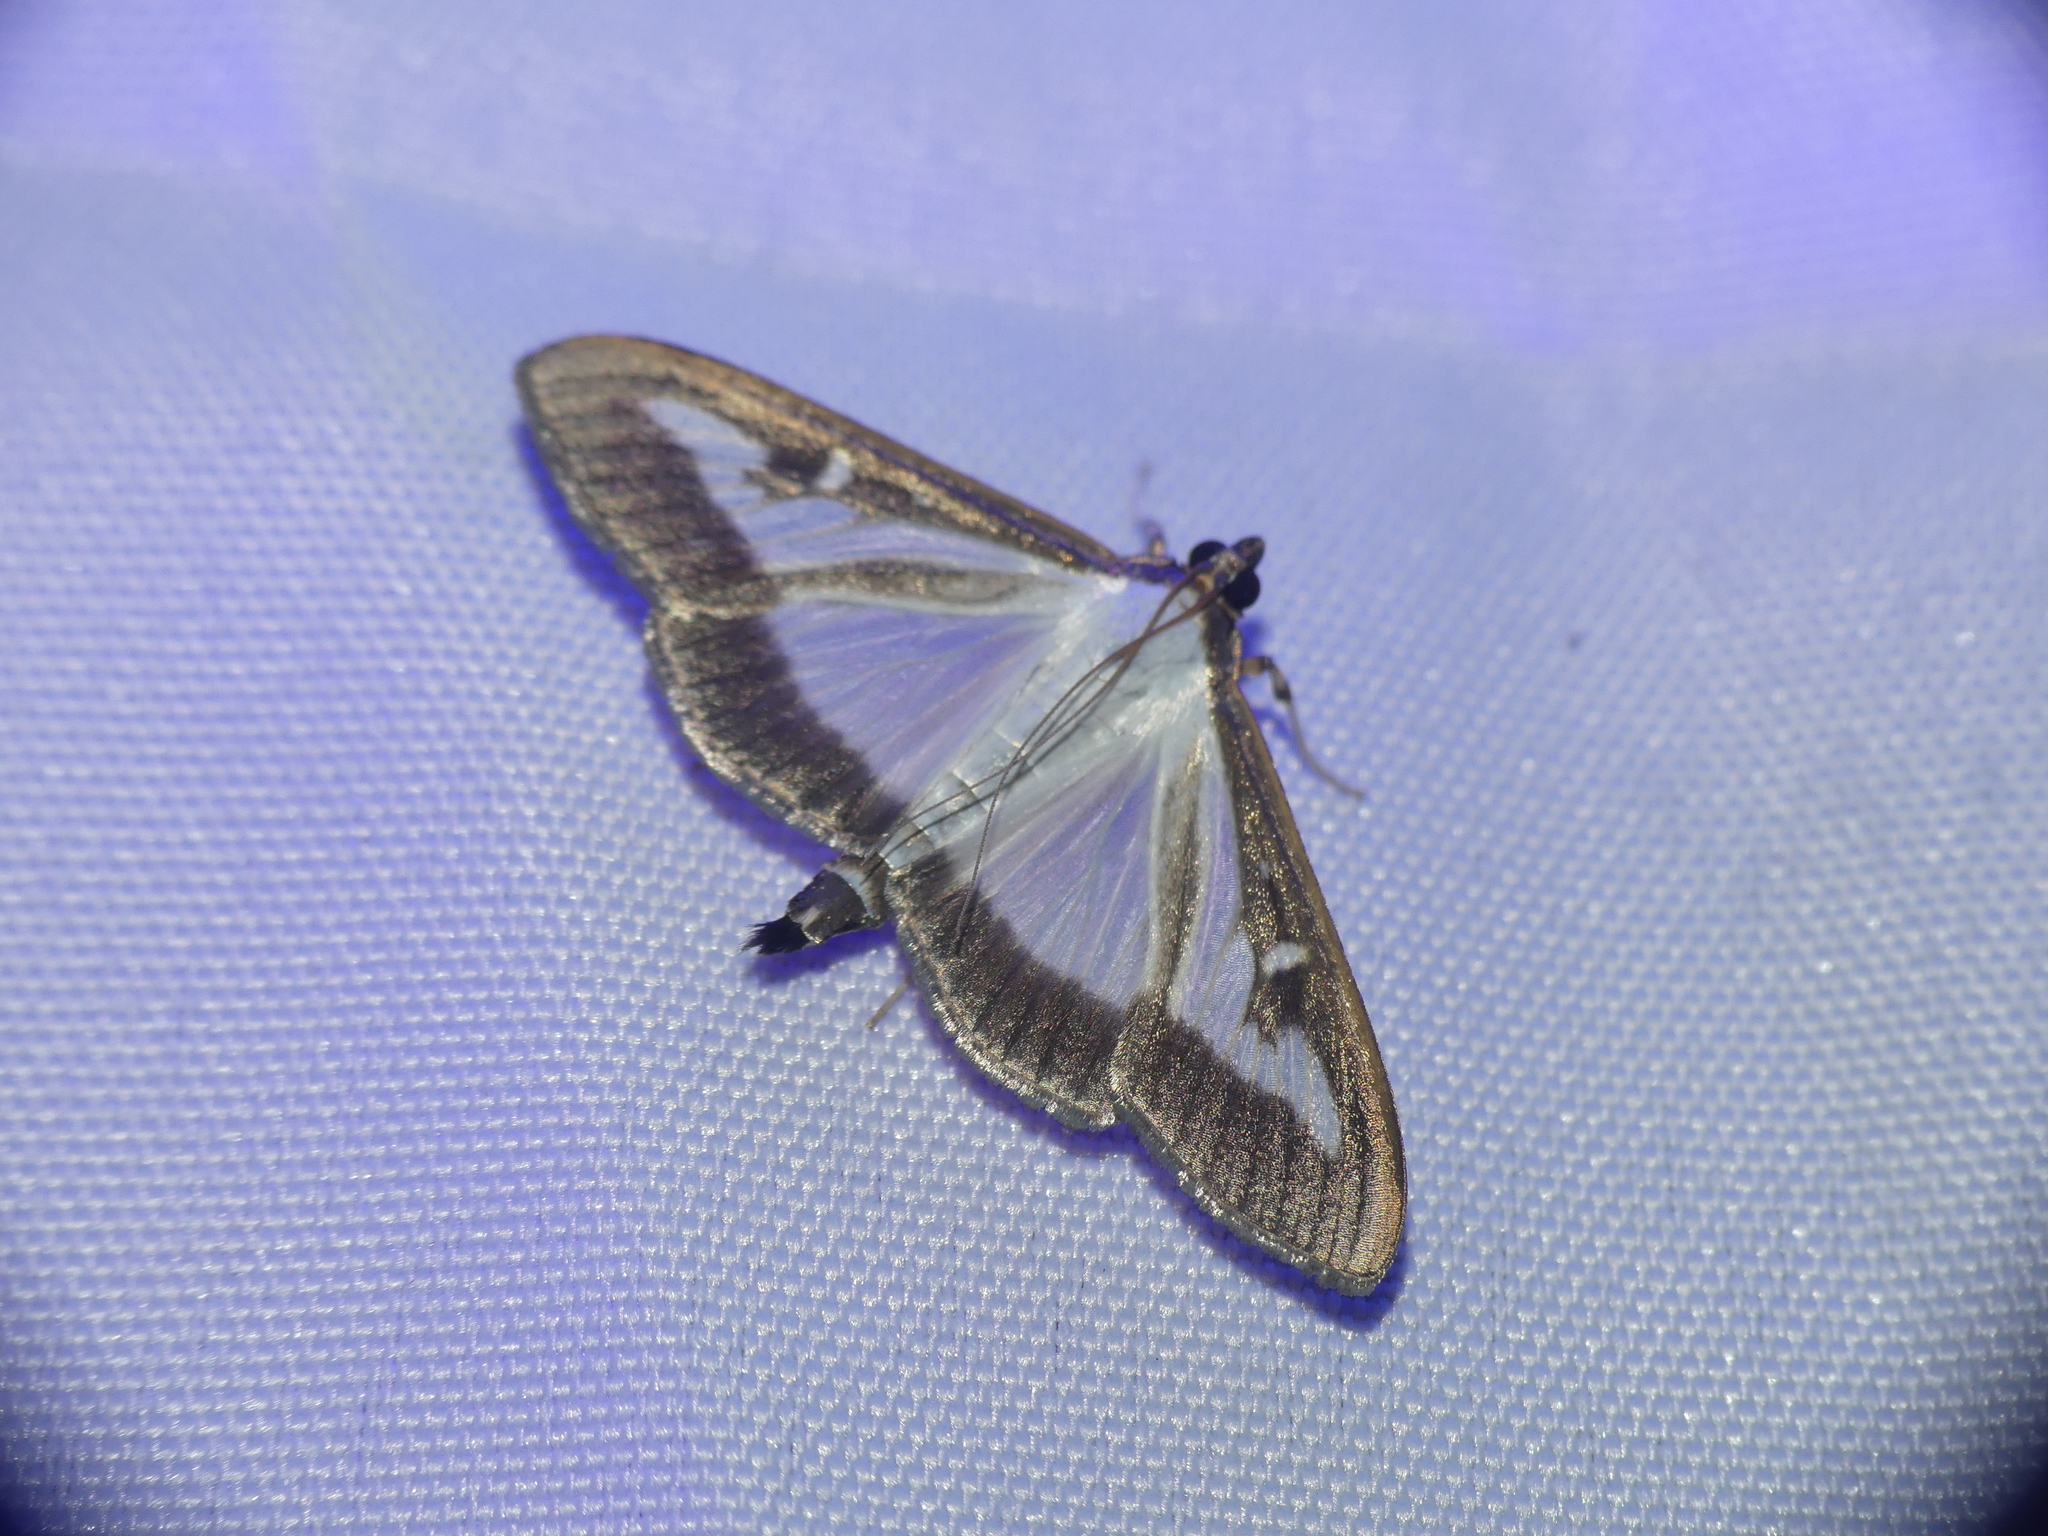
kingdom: Animalia
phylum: Arthropoda
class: Insecta
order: Lepidoptera
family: Crambidae
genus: Cydalima
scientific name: Cydalima perspectalis
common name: Box tree moth
